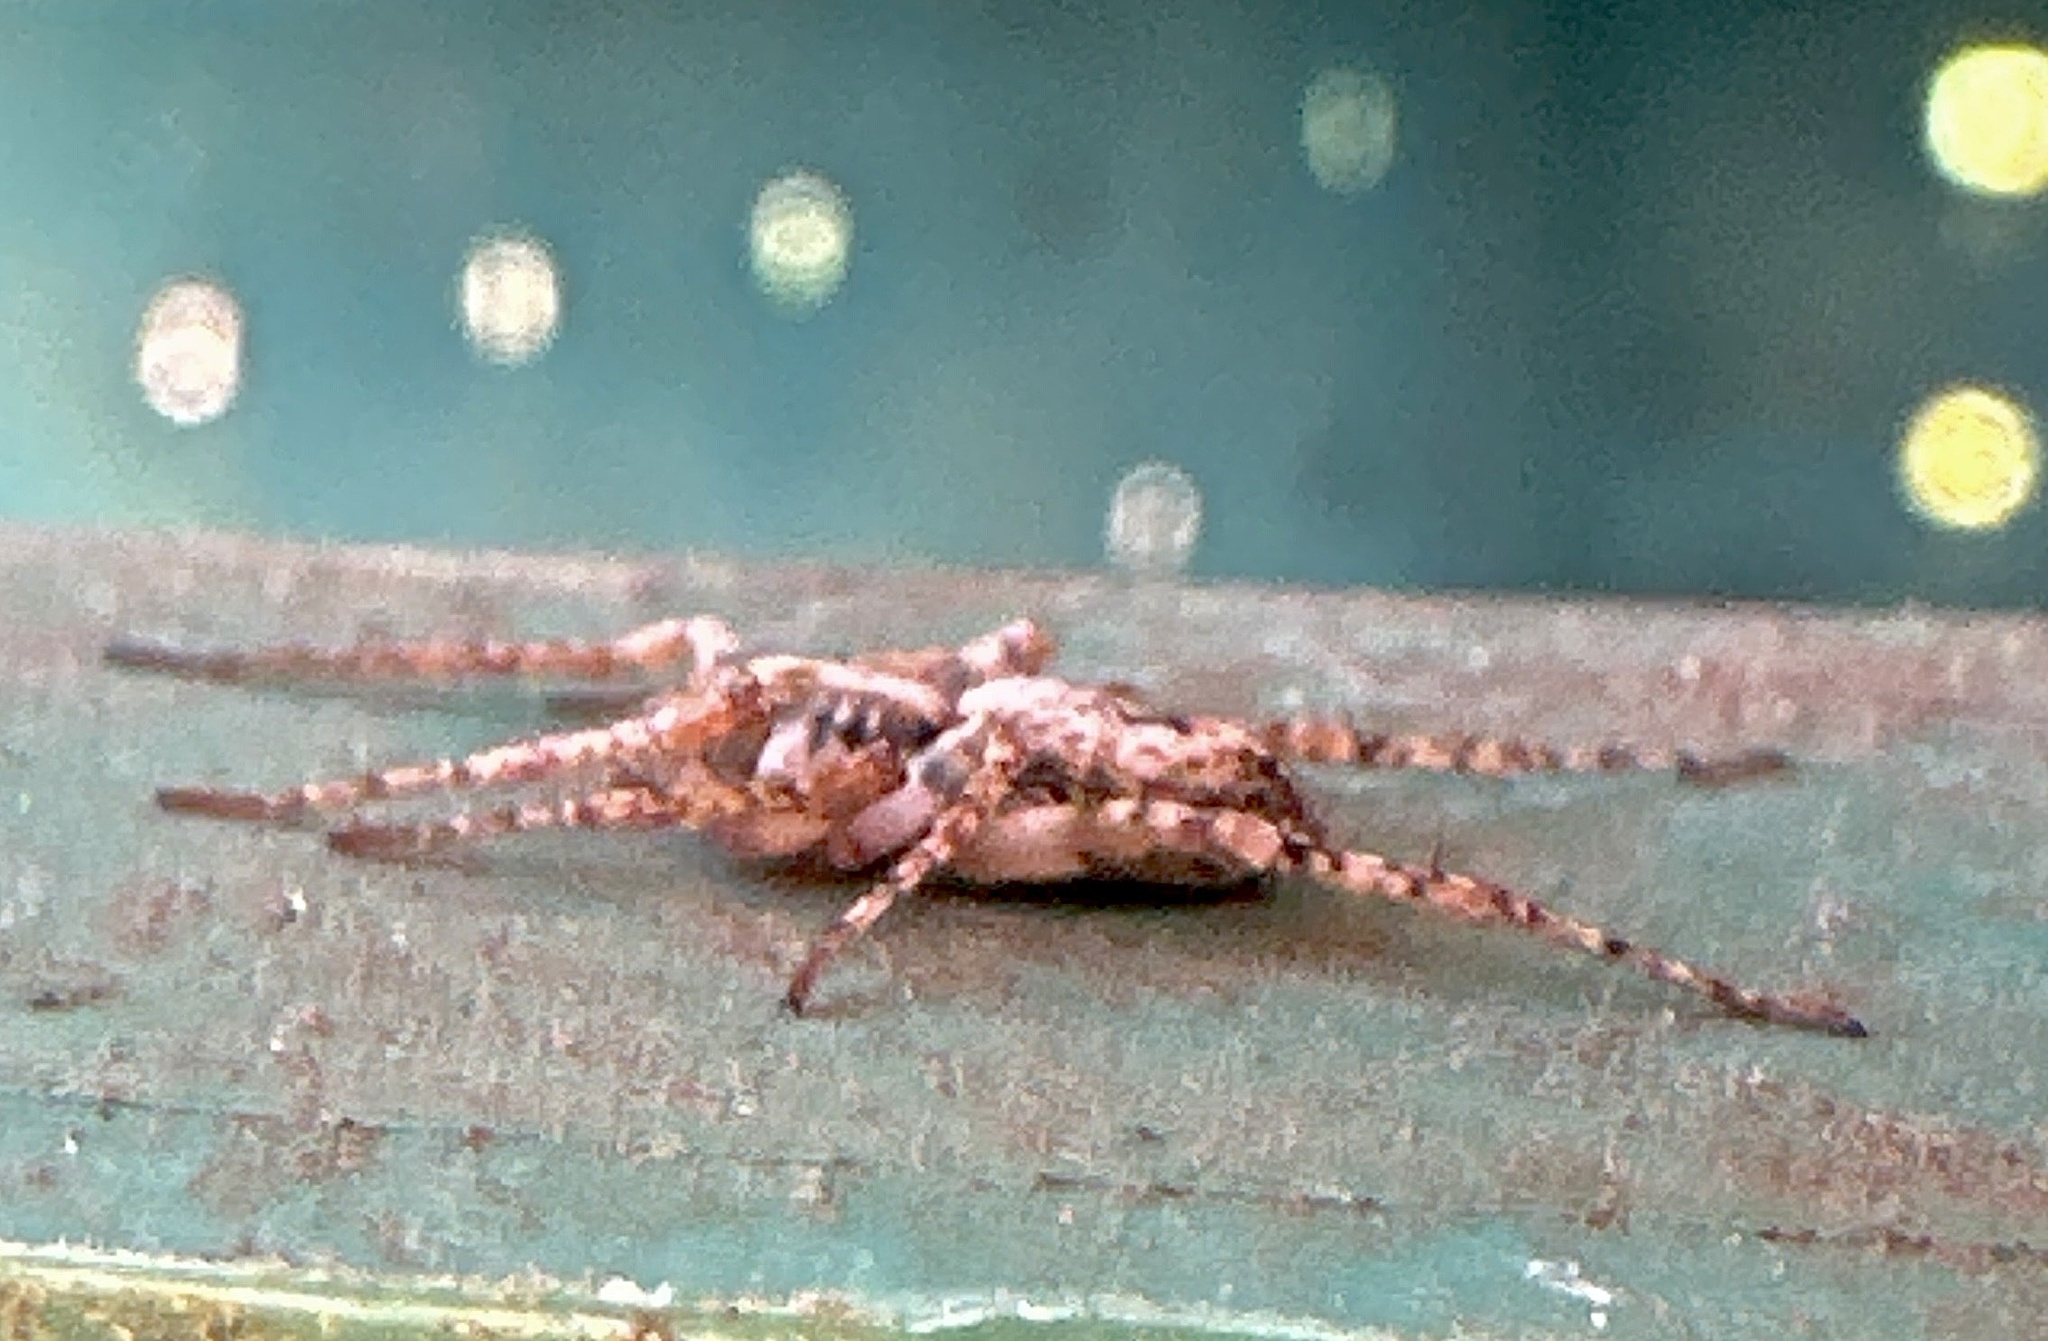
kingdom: Animalia
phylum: Arthropoda
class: Arachnida
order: Araneae
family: Anyphaenidae
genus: Anyphaena
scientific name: Anyphaena accentuata
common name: Buzzing spider
